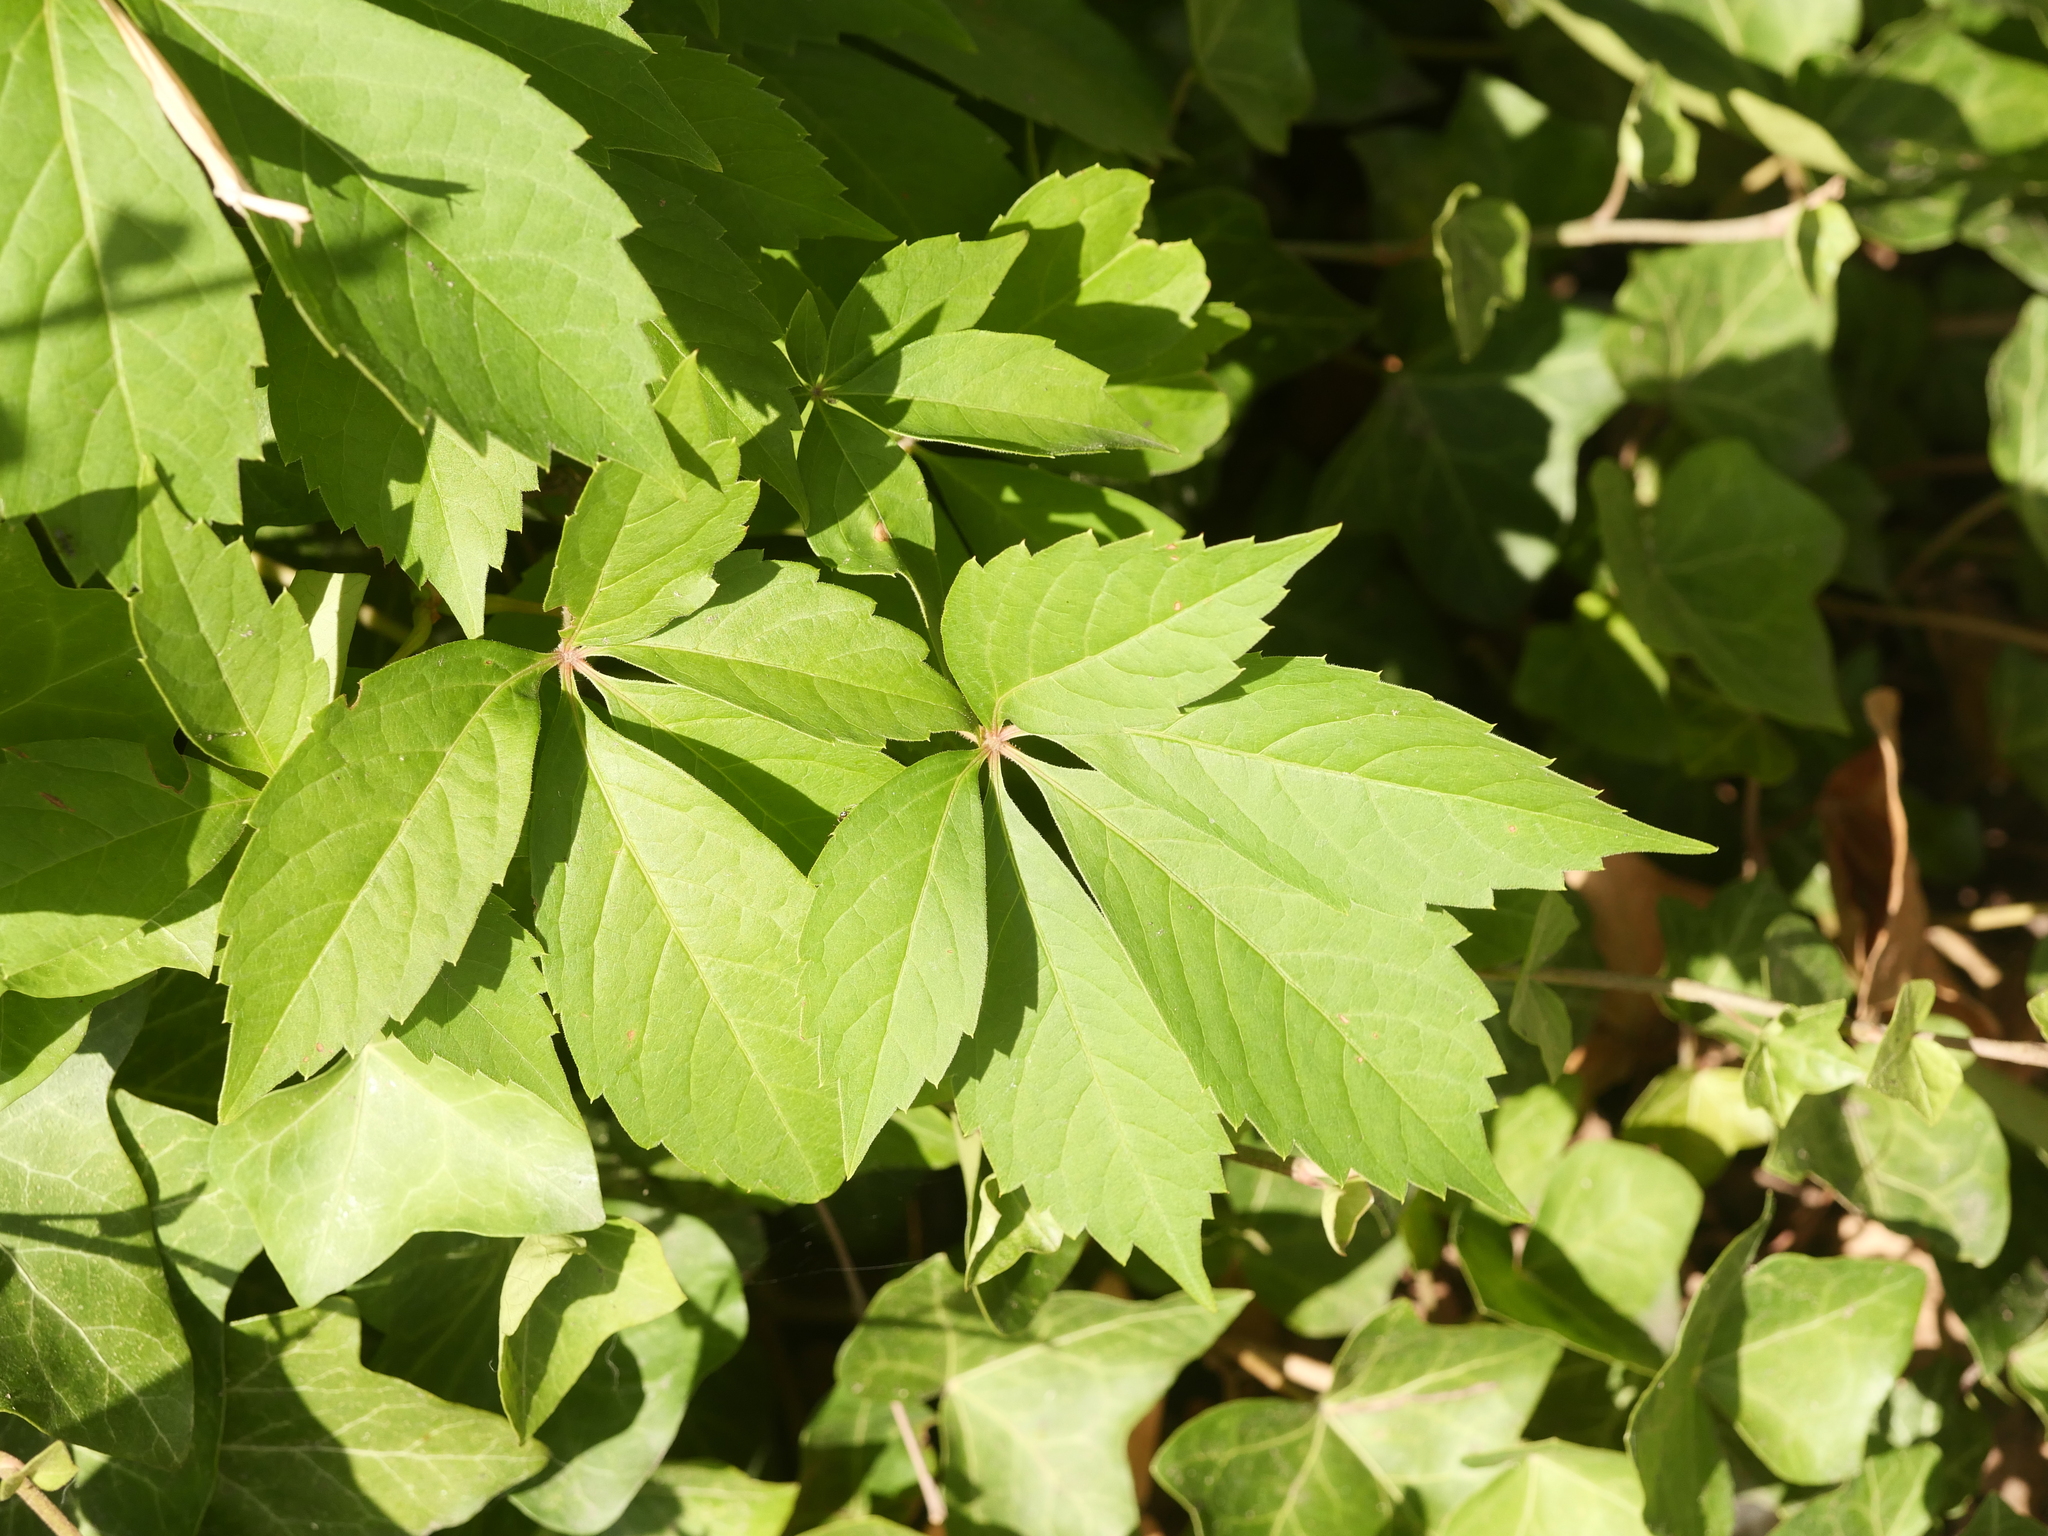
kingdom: Plantae
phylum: Tracheophyta
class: Magnoliopsida
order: Vitales
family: Vitaceae
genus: Parthenocissus
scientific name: Parthenocissus inserta
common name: False virginia-creeper
